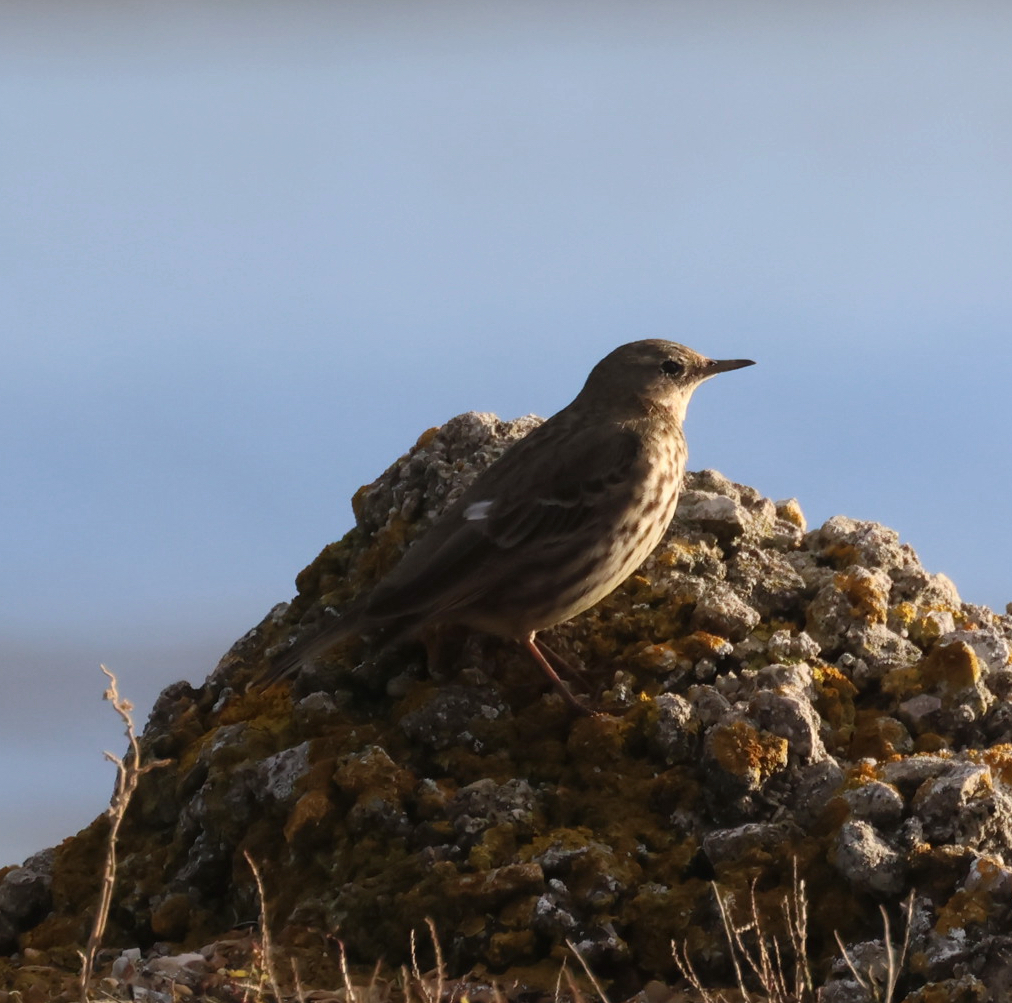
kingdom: Animalia
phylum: Chordata
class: Aves
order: Passeriformes
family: Motacillidae
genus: Anthus
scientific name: Anthus petrosus
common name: Eurasian rock pipit
